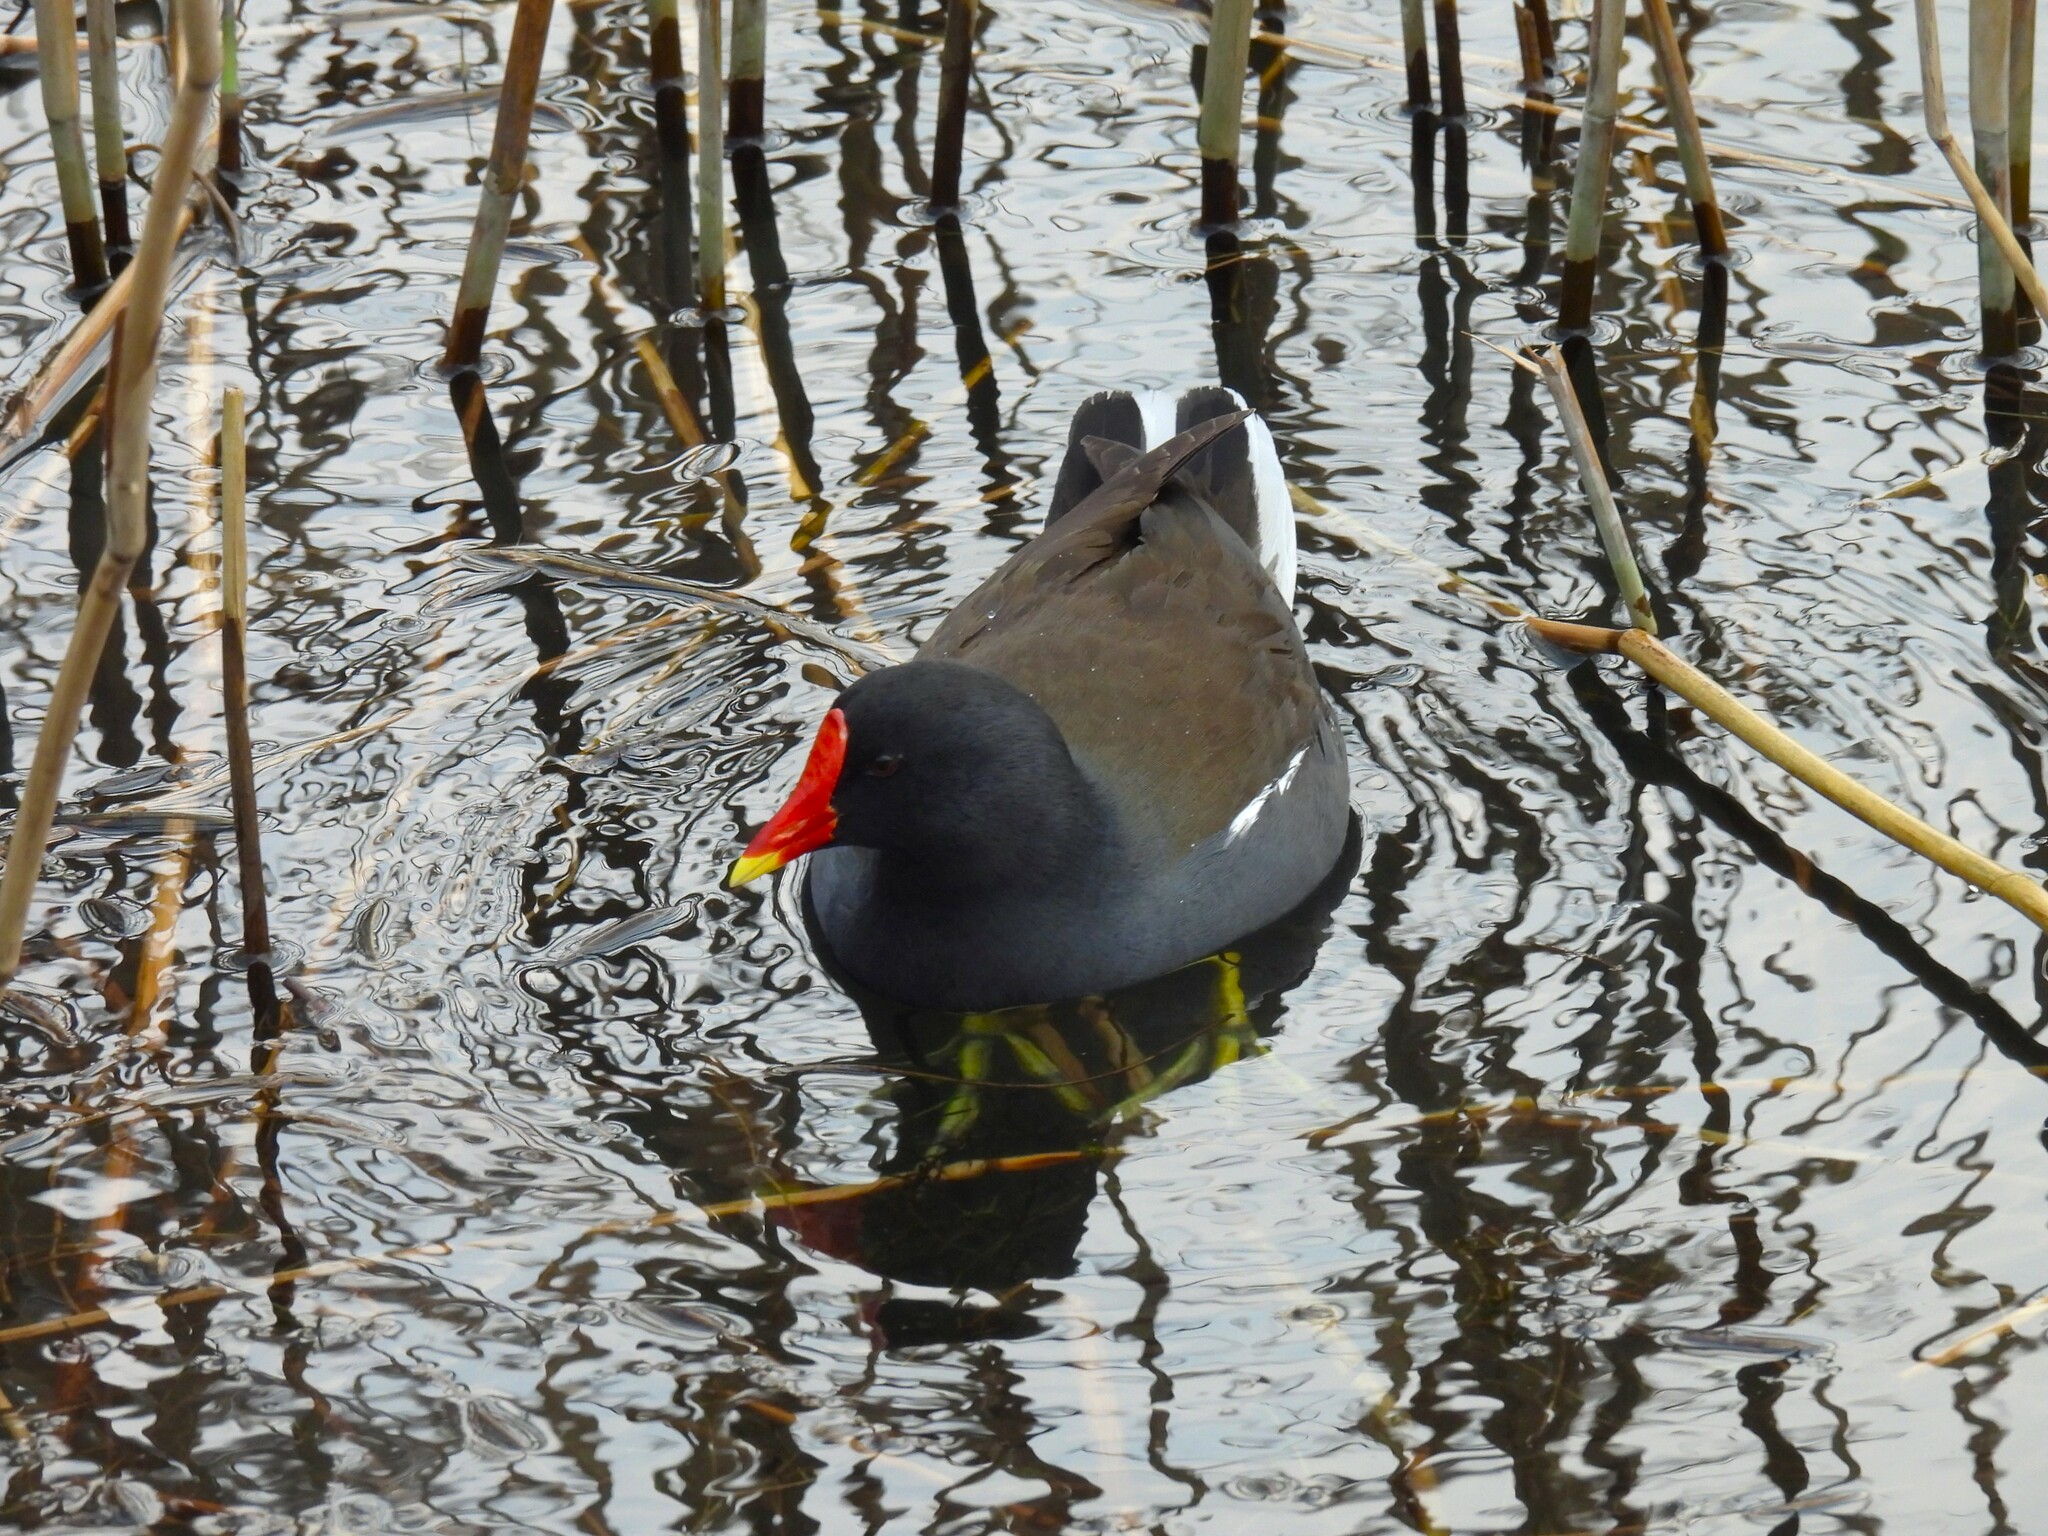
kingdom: Animalia
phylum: Chordata
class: Aves
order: Gruiformes
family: Rallidae
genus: Gallinula
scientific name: Gallinula chloropus
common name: Common moorhen
